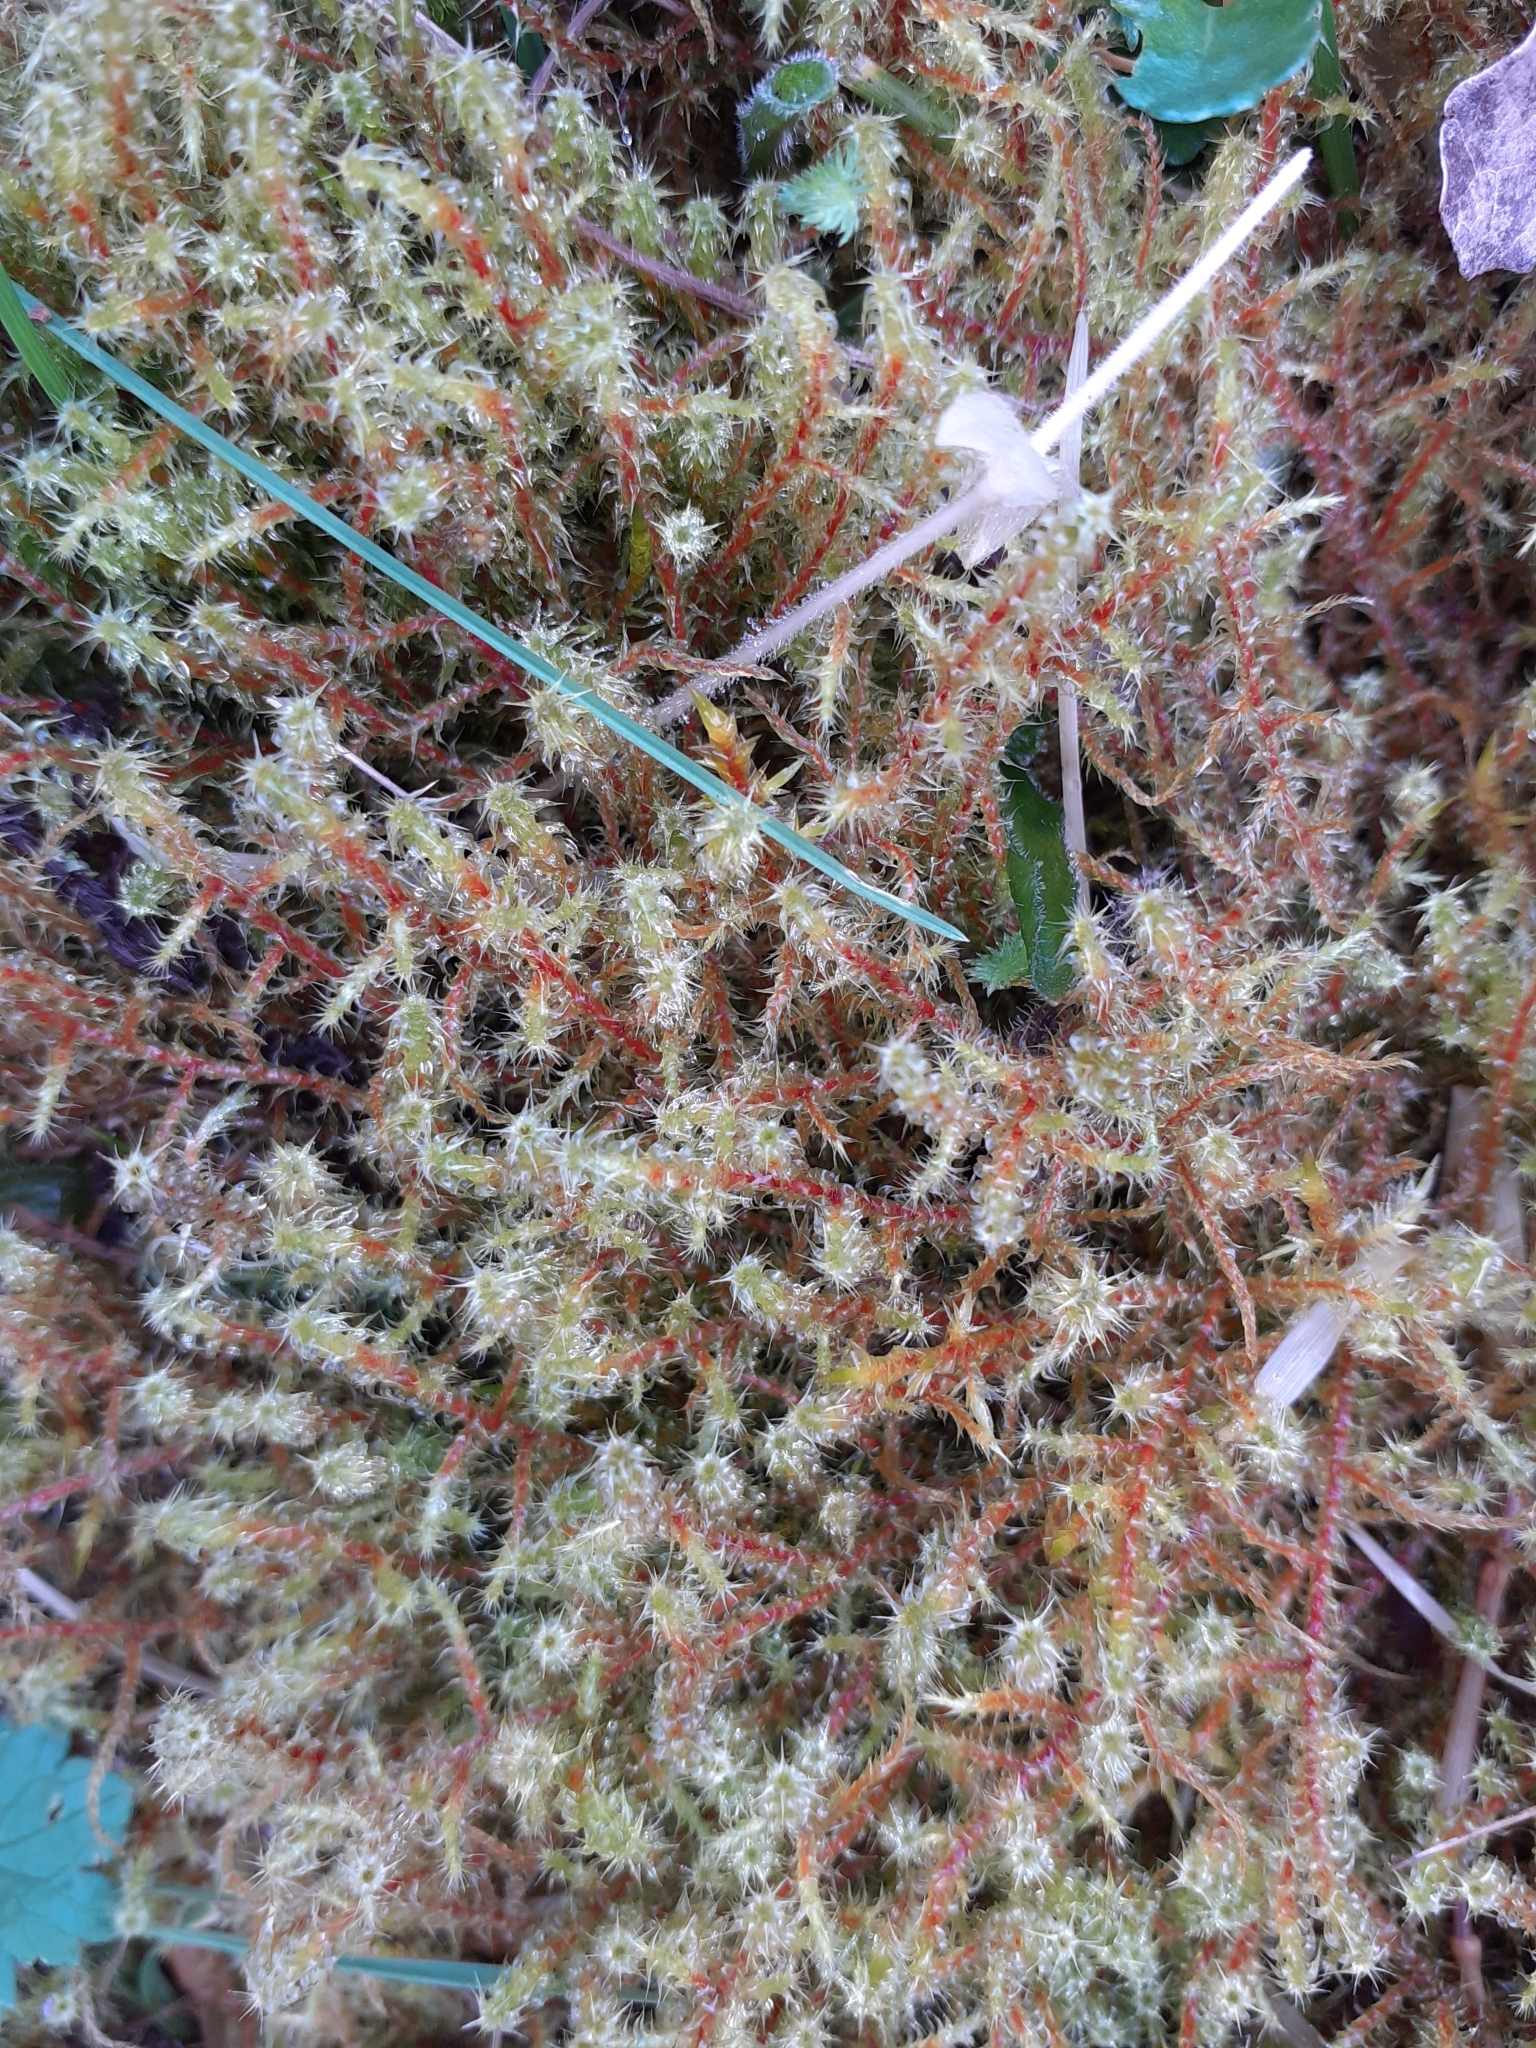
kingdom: Plantae
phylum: Bryophyta
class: Bryopsida
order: Hypnales
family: Hylocomiaceae
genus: Rhytidiadelphus
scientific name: Rhytidiadelphus squarrosus
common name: Springy turf-moss
